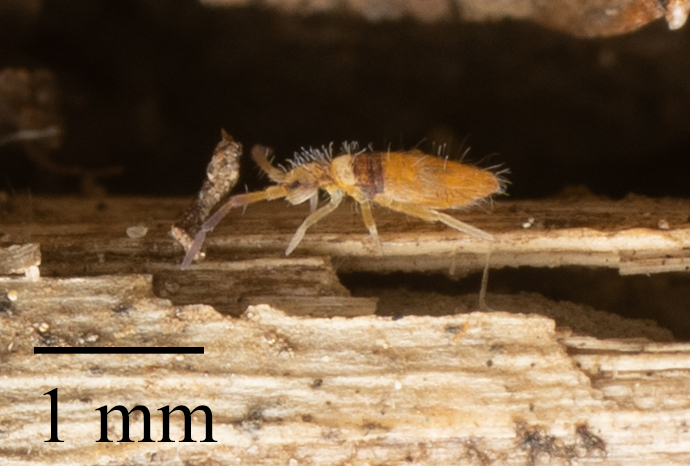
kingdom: Animalia
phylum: Arthropoda
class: Collembola
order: Entomobryomorpha
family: Entomobryidae
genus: Entomobrya
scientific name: Entomobrya atrocincta
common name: Springtail
